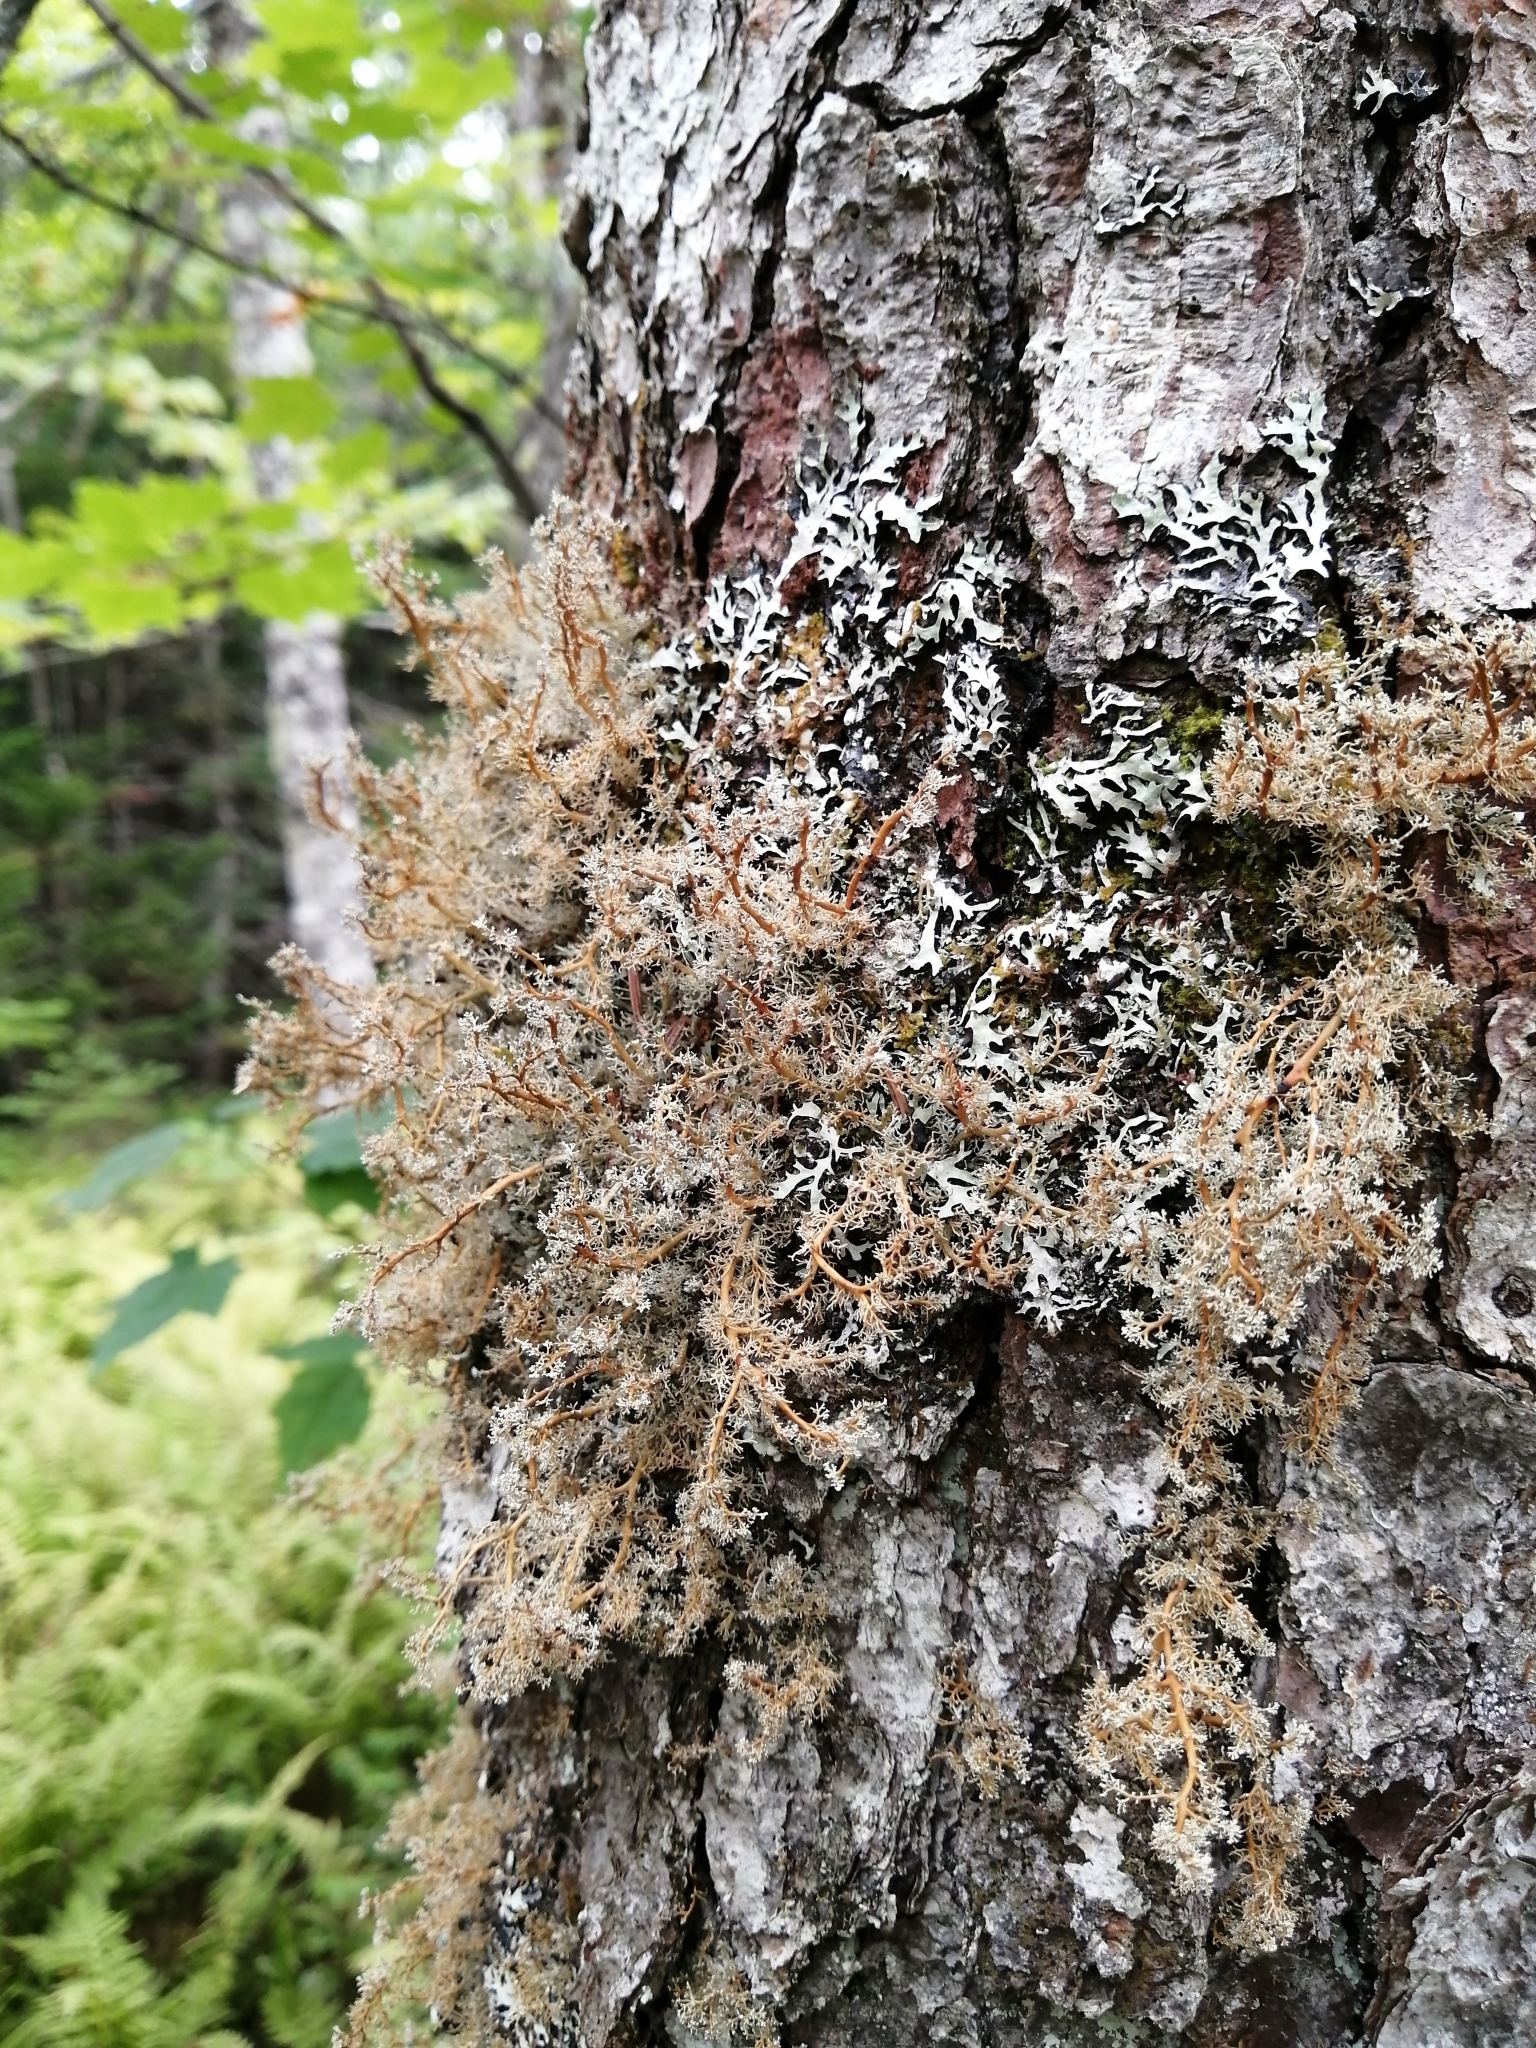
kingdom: Fungi
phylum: Ascomycota
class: Lecanoromycetes
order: Lecanorales
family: Sphaerophoraceae
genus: Sphaerophorus
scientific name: Sphaerophorus globosus
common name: Globe ball lichen
